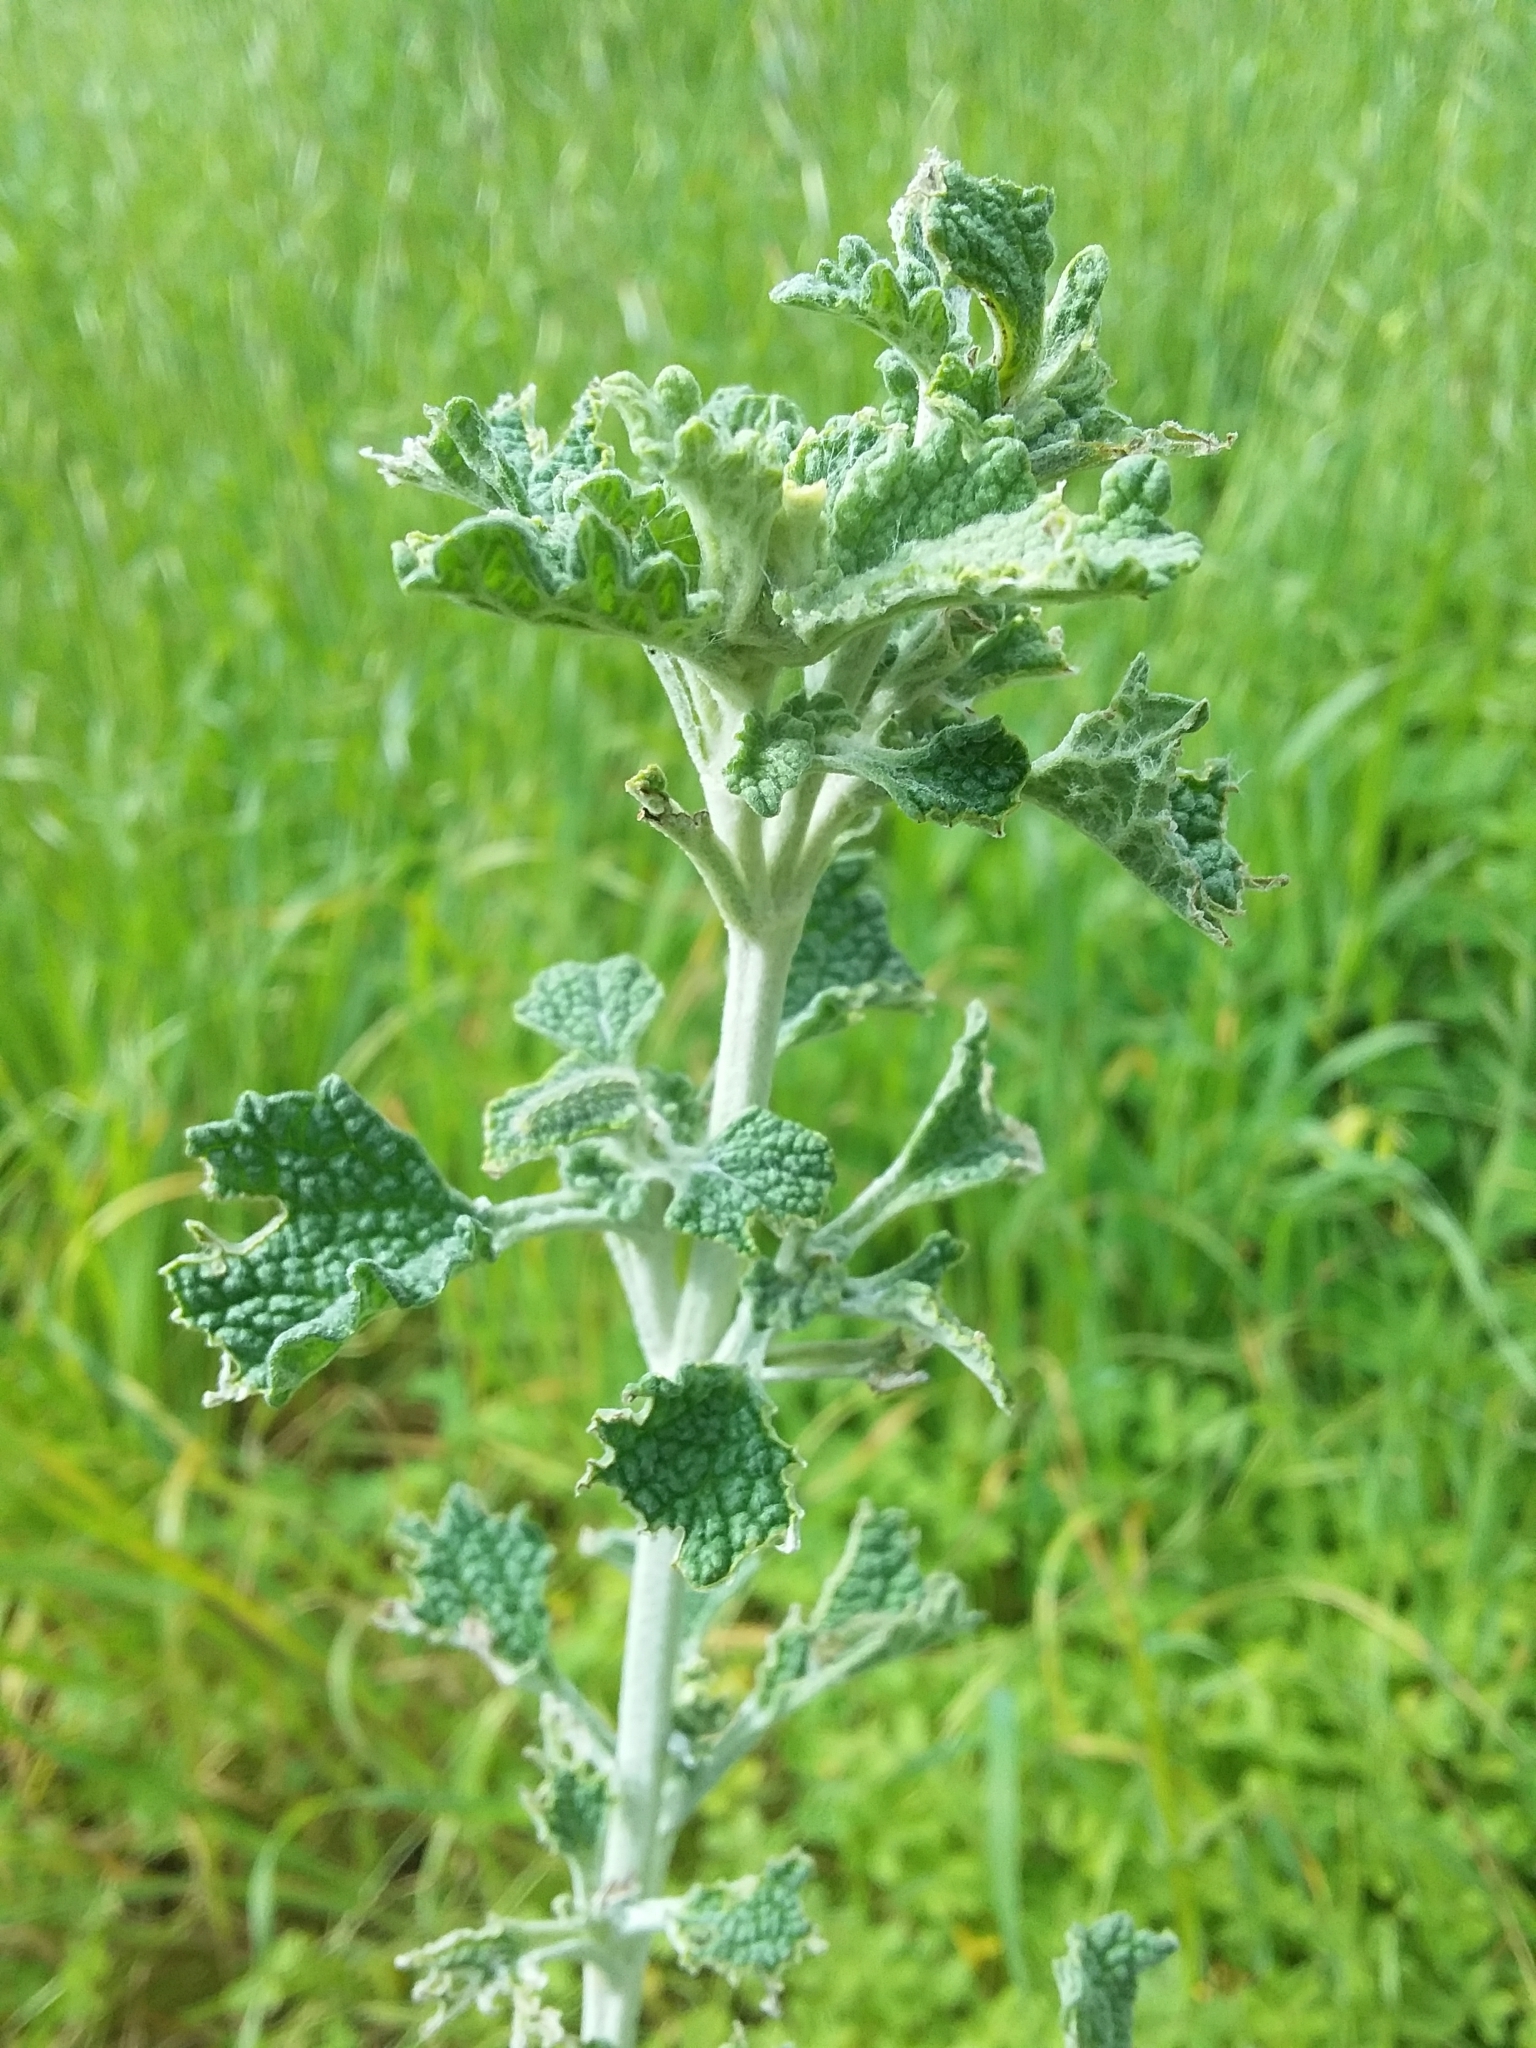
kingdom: Plantae
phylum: Tracheophyta
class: Magnoliopsida
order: Lamiales
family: Lamiaceae
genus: Marrubium
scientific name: Marrubium vulgare
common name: Horehound
